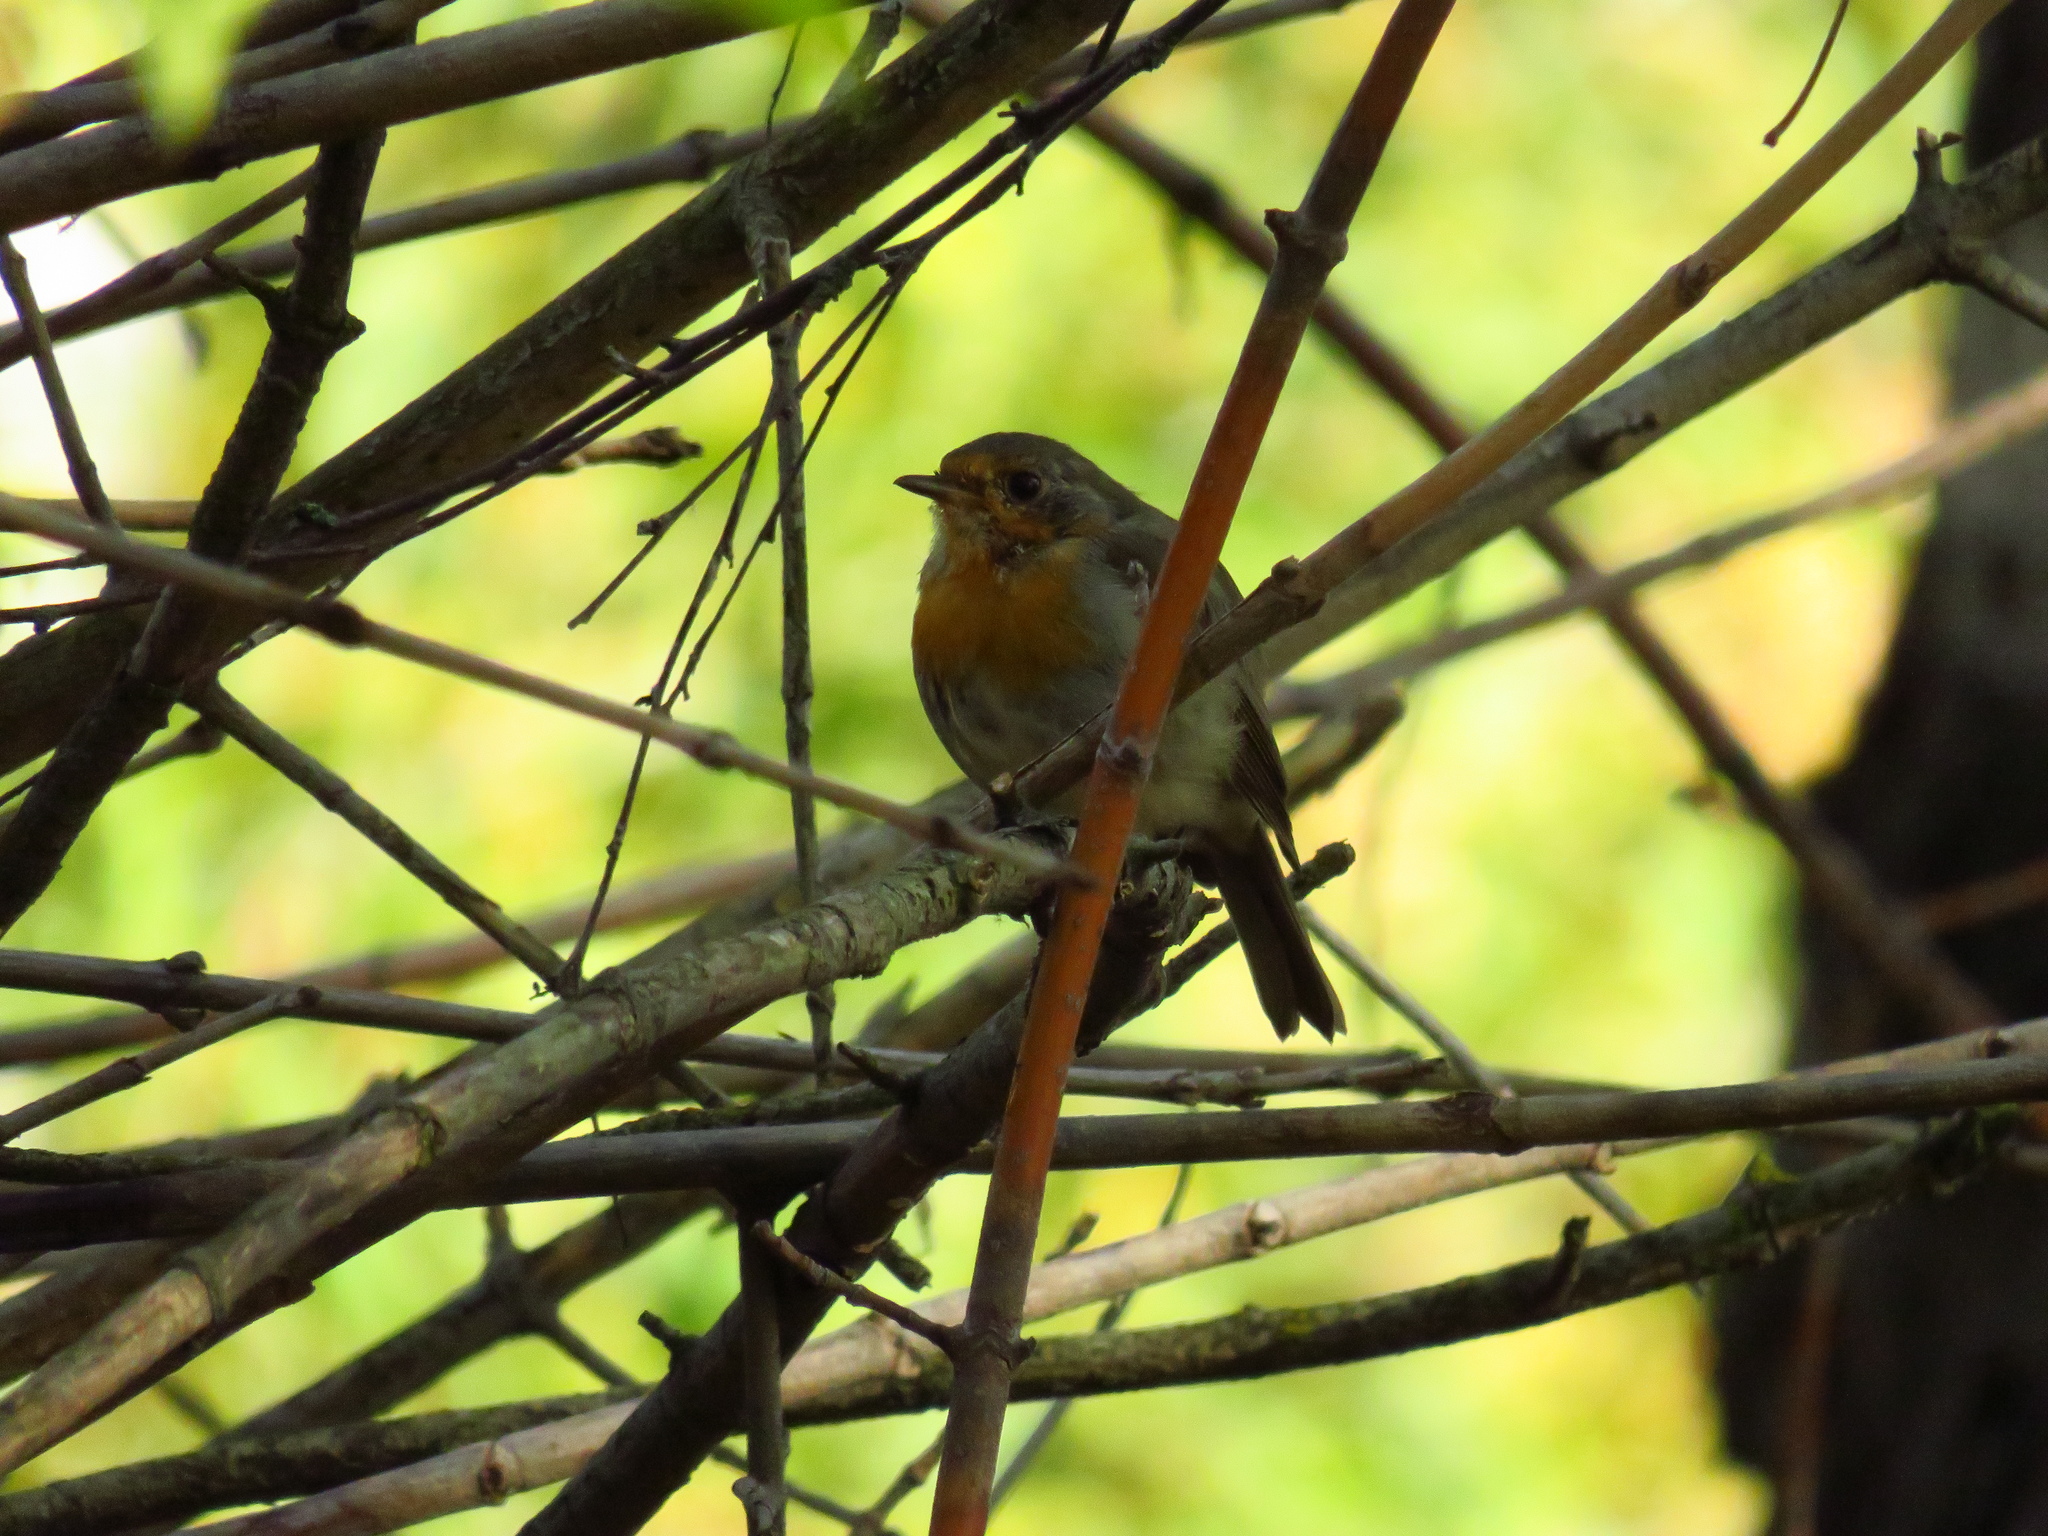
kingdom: Animalia
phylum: Chordata
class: Aves
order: Passeriformes
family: Muscicapidae
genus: Erithacus
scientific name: Erithacus rubecula
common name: European robin
